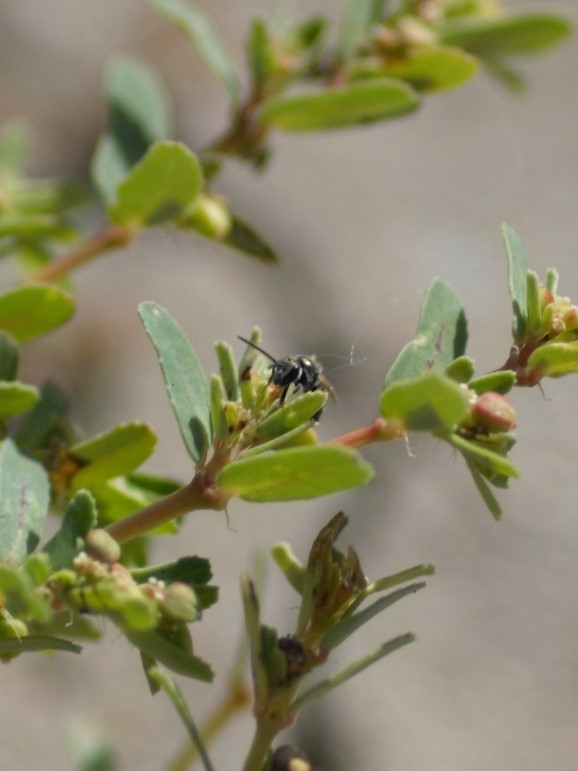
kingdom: Animalia
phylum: Arthropoda
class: Insecta
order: Hymenoptera
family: Halictidae
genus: Dialictus
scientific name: Dialictus
